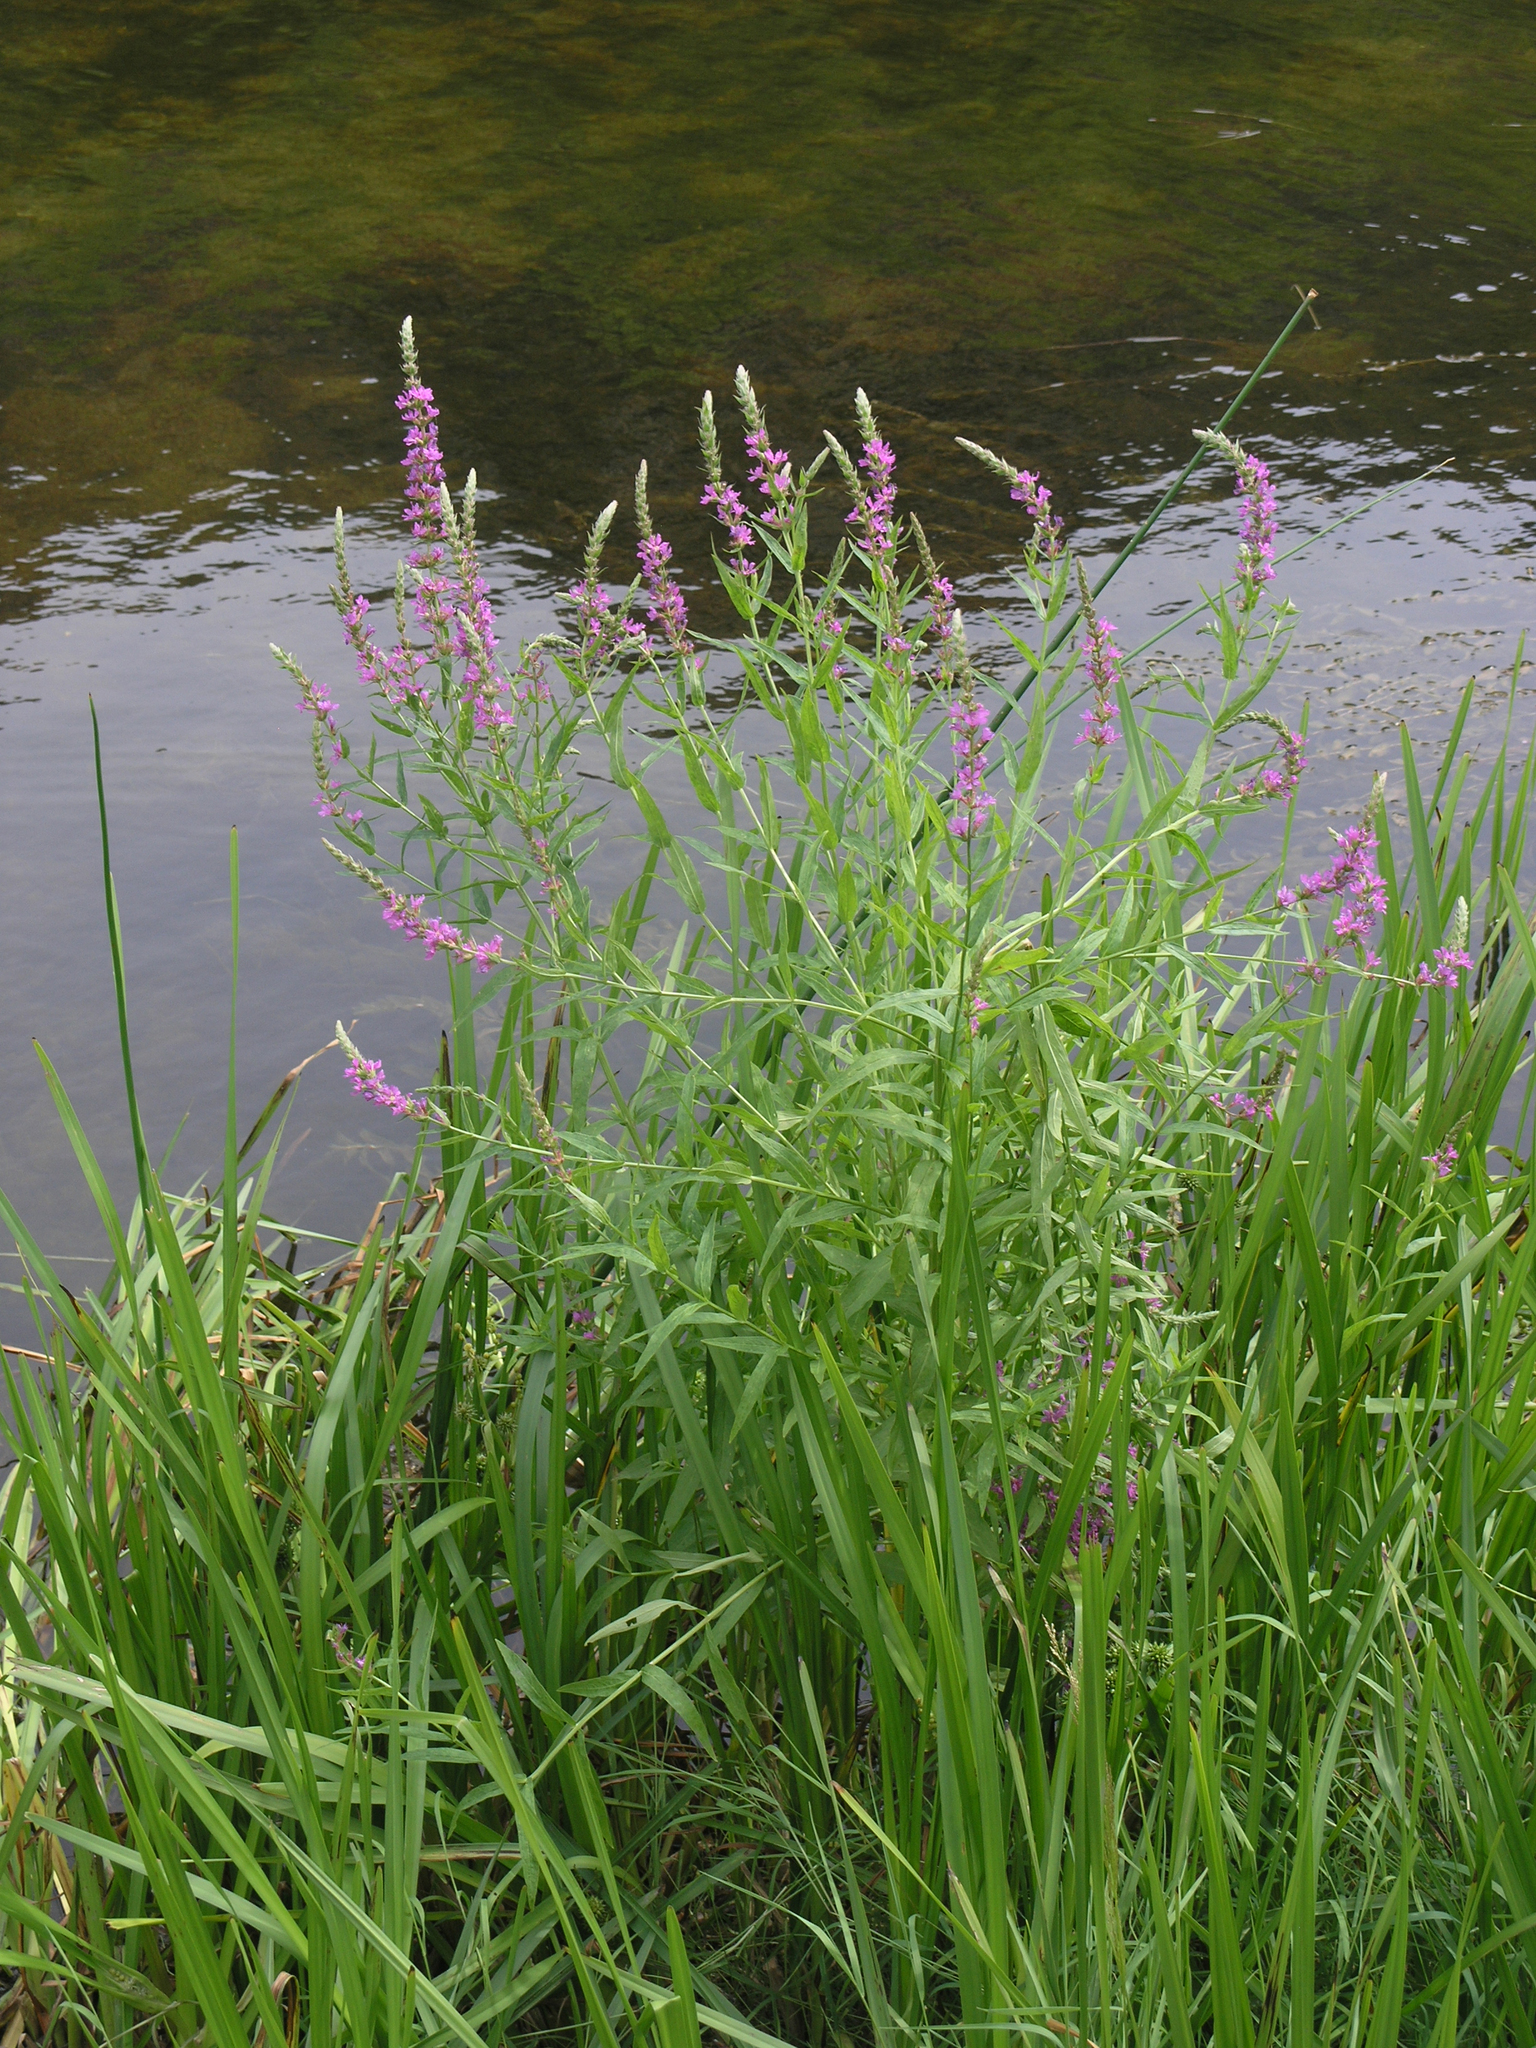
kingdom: Plantae
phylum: Tracheophyta
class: Magnoliopsida
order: Myrtales
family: Lythraceae
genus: Lythrum
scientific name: Lythrum salicaria
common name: Purple loosestrife
